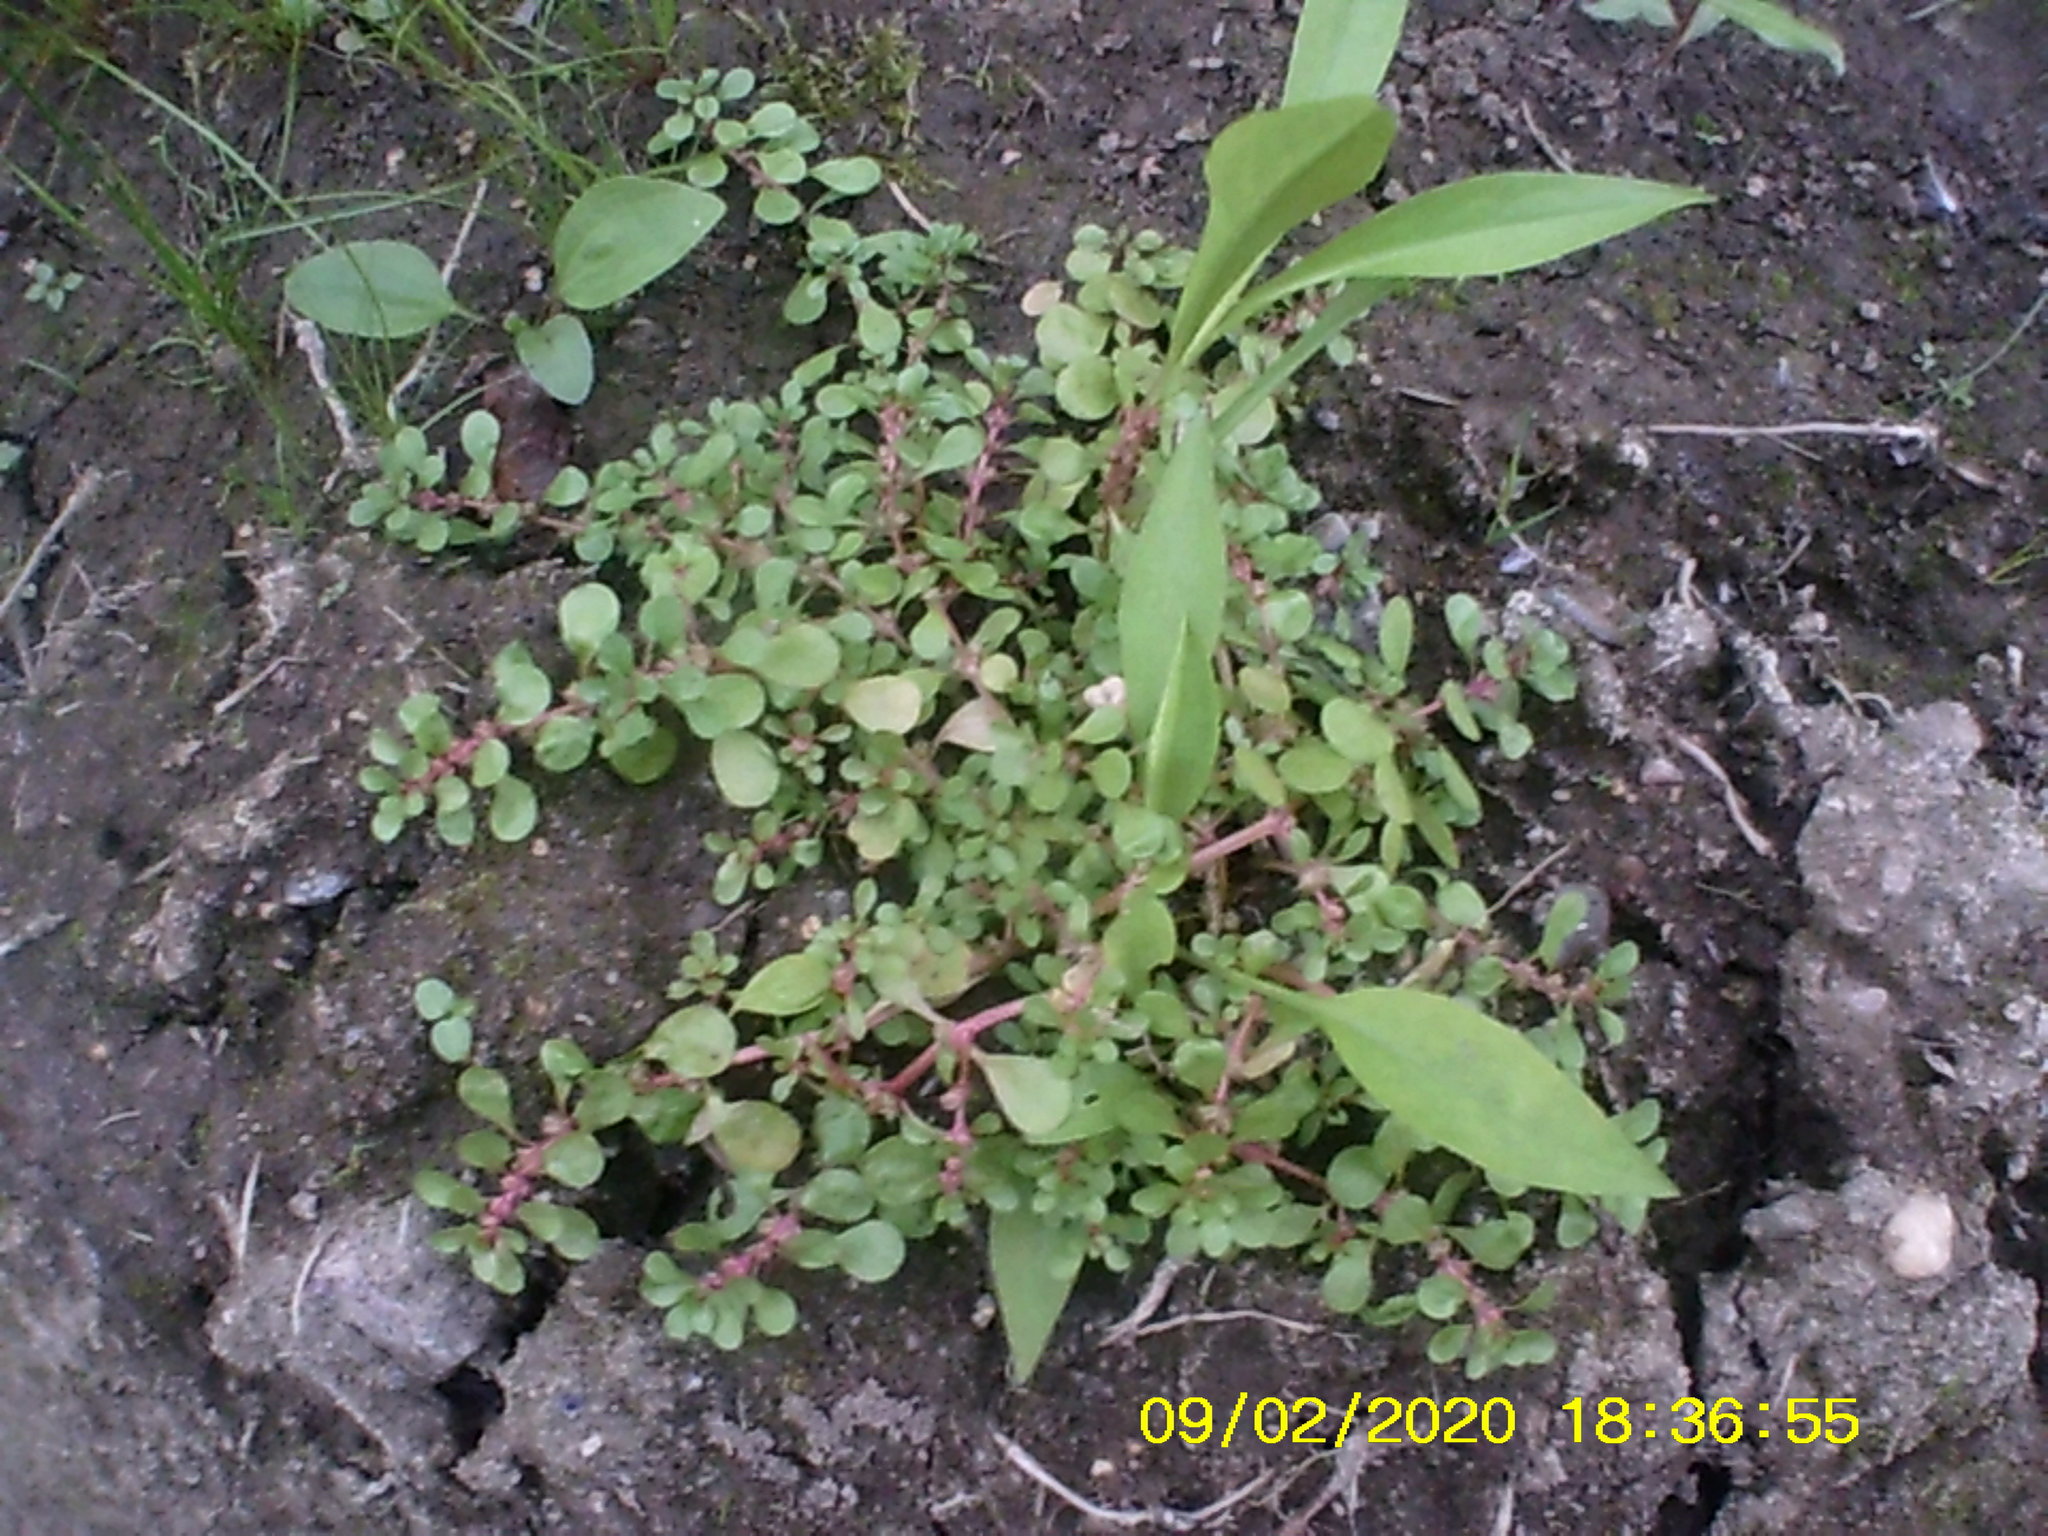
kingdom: Plantae
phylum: Tracheophyta
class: Magnoliopsida
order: Myrtales
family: Lythraceae
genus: Lythrum
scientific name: Lythrum portula
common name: Water purslane
